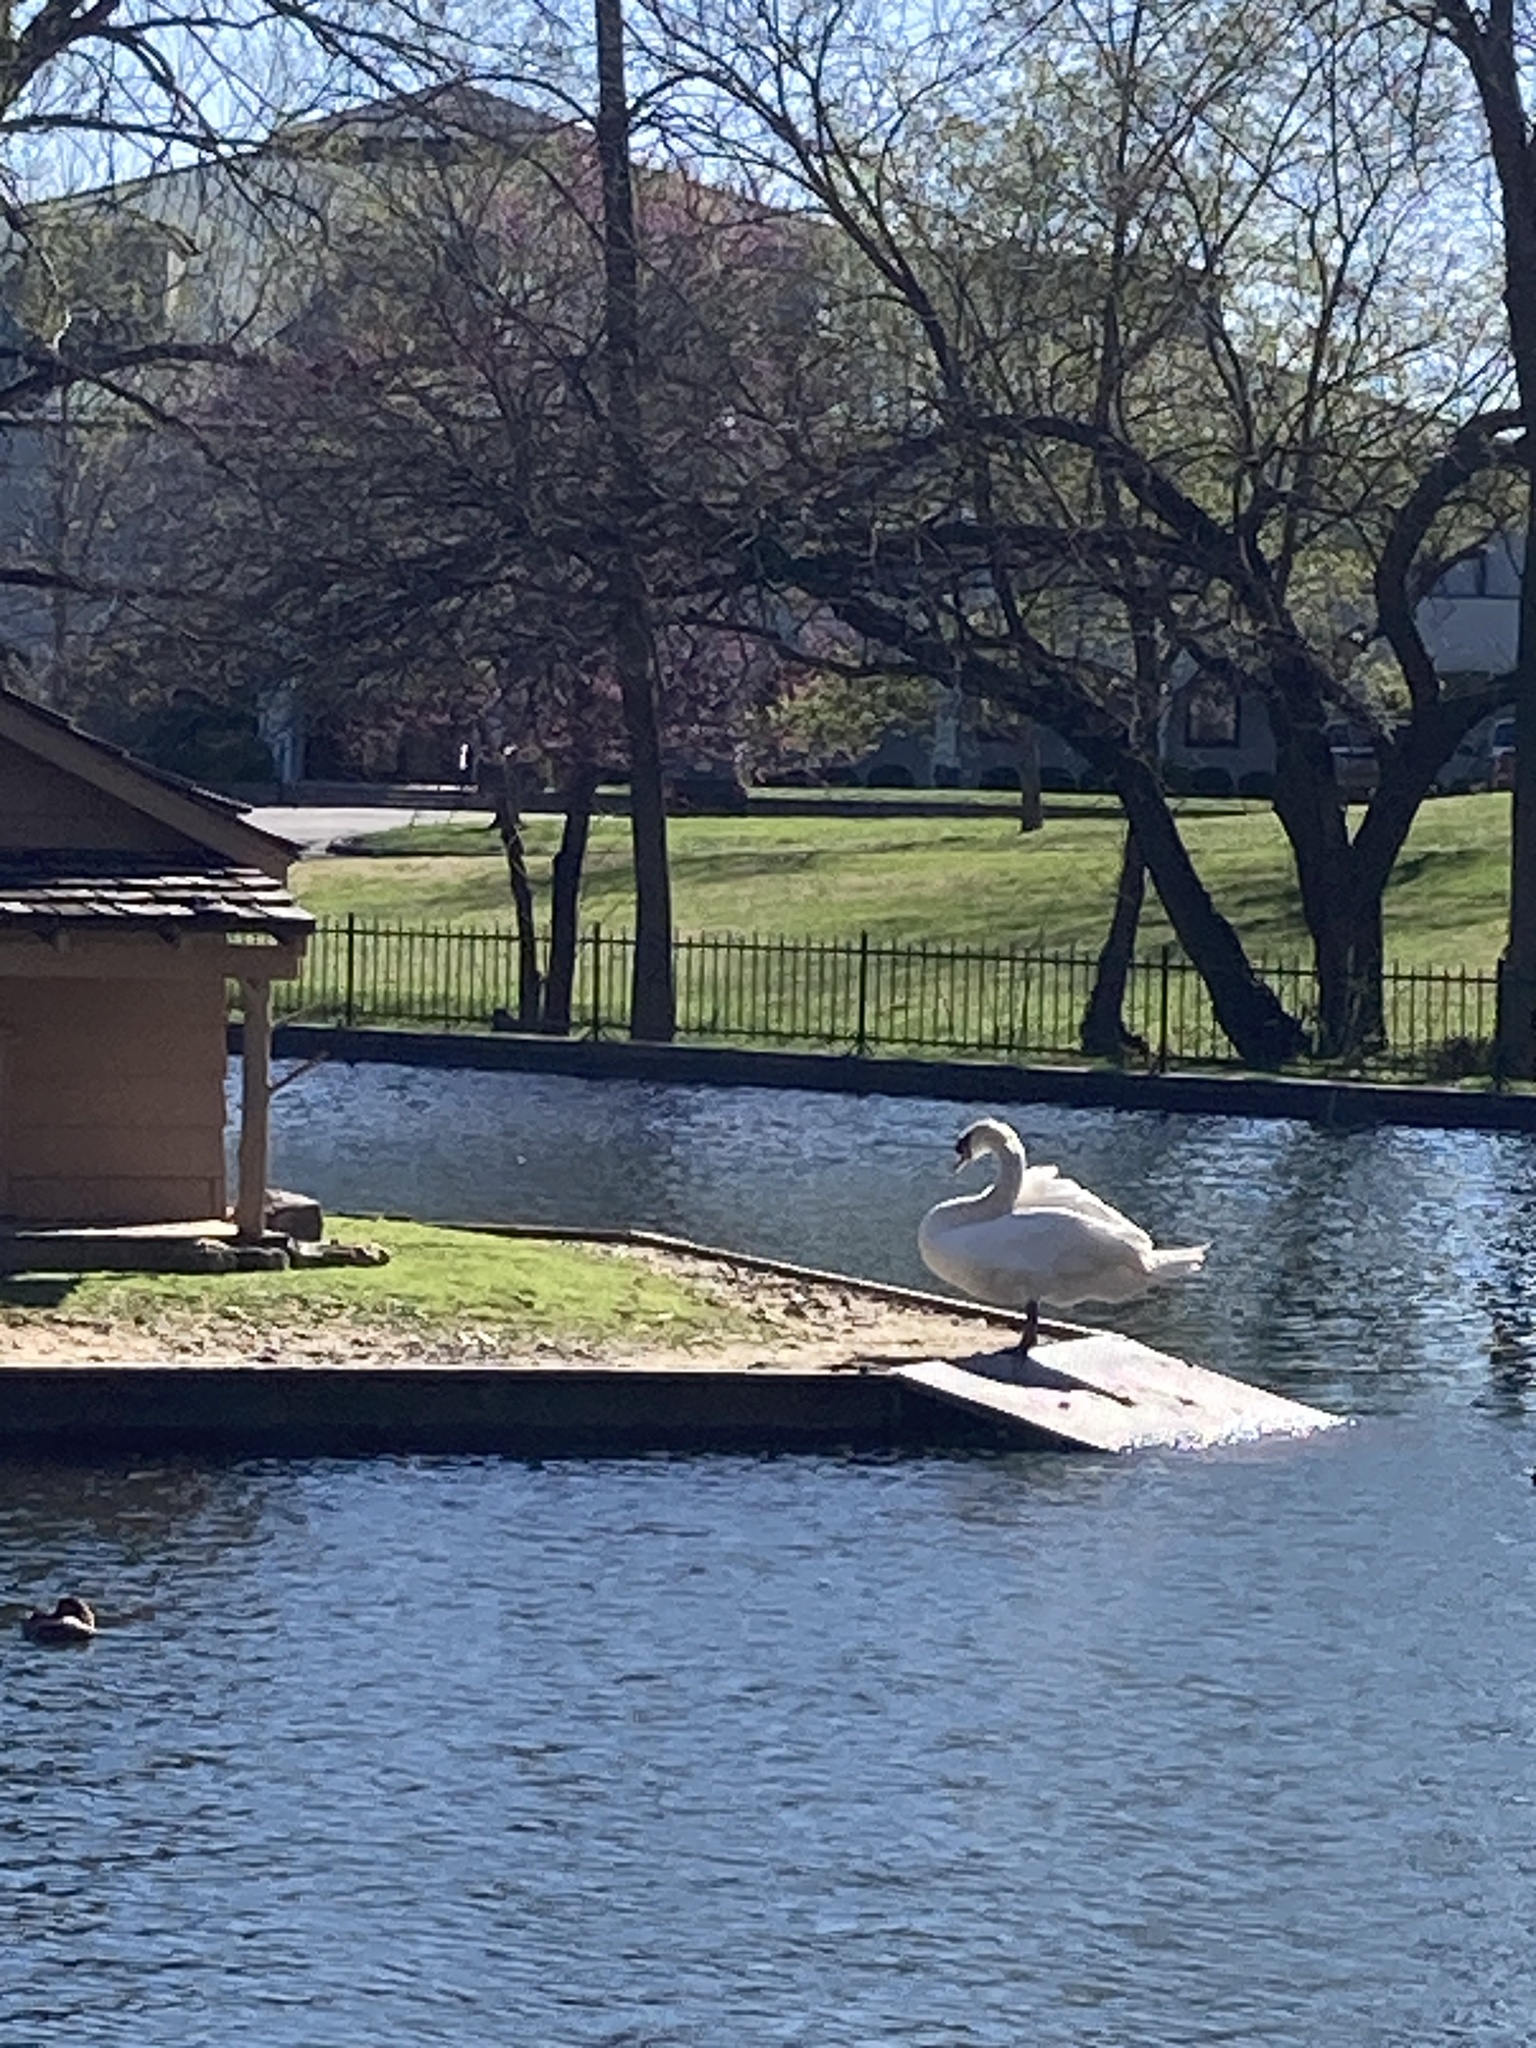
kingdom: Animalia
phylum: Chordata
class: Aves
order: Anseriformes
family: Anatidae
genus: Cygnus
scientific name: Cygnus olor
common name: Mute swan
